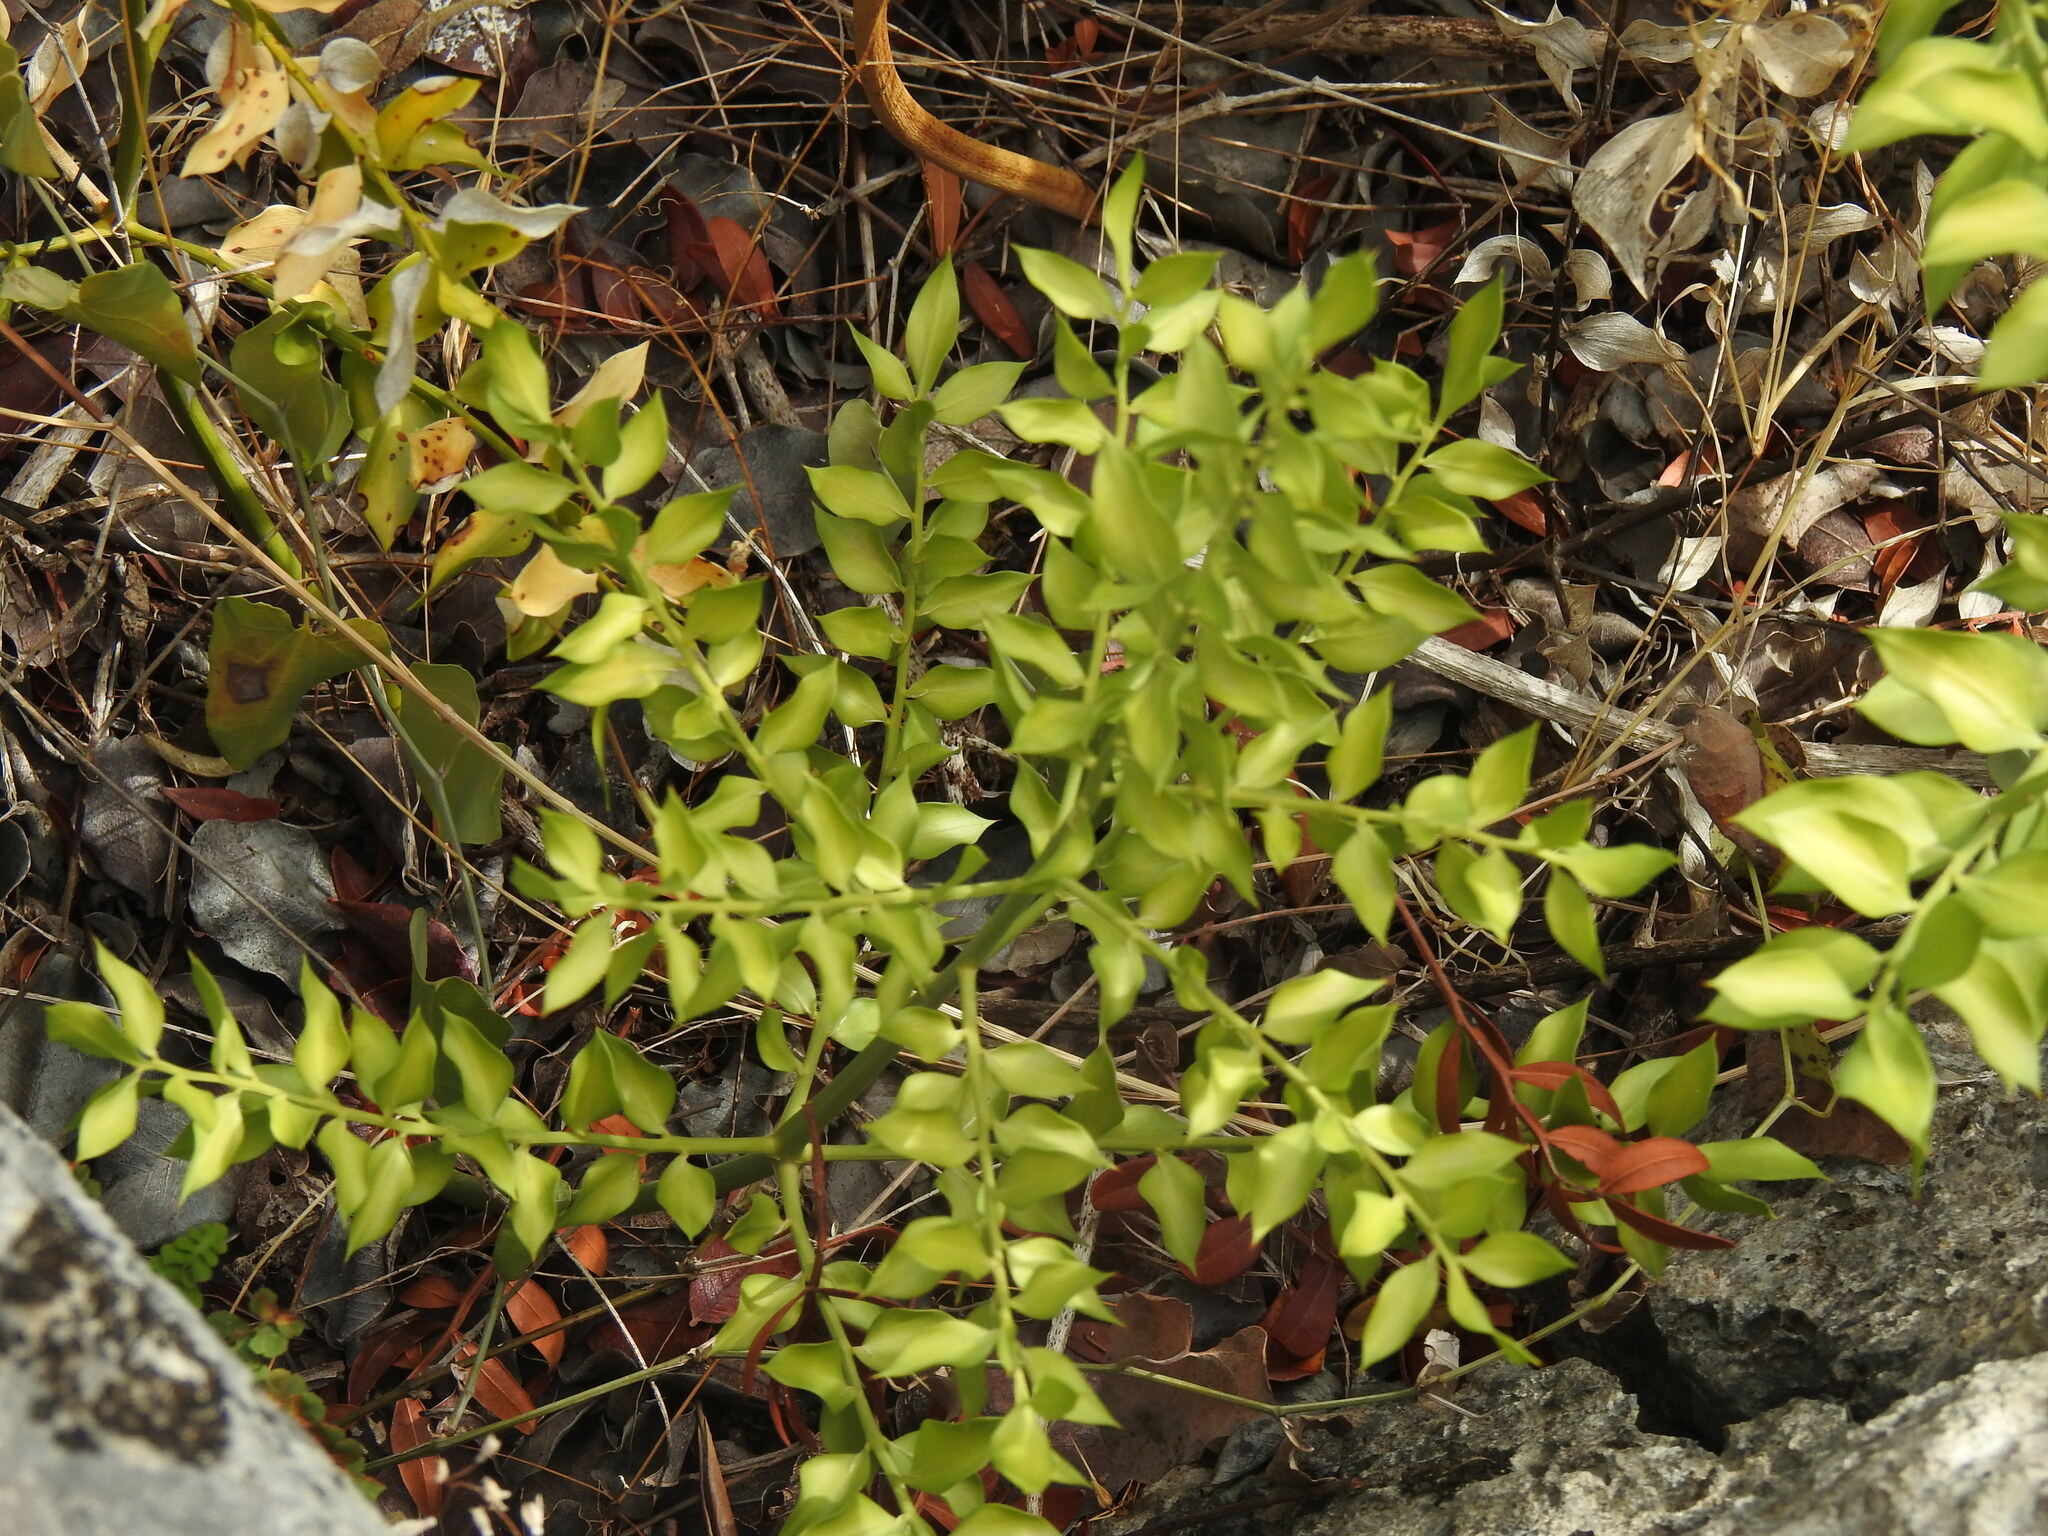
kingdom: Plantae
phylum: Tracheophyta
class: Liliopsida
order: Asparagales
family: Asparagaceae
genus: Ruscus
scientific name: Ruscus aculeatus
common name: Butcher's-broom
